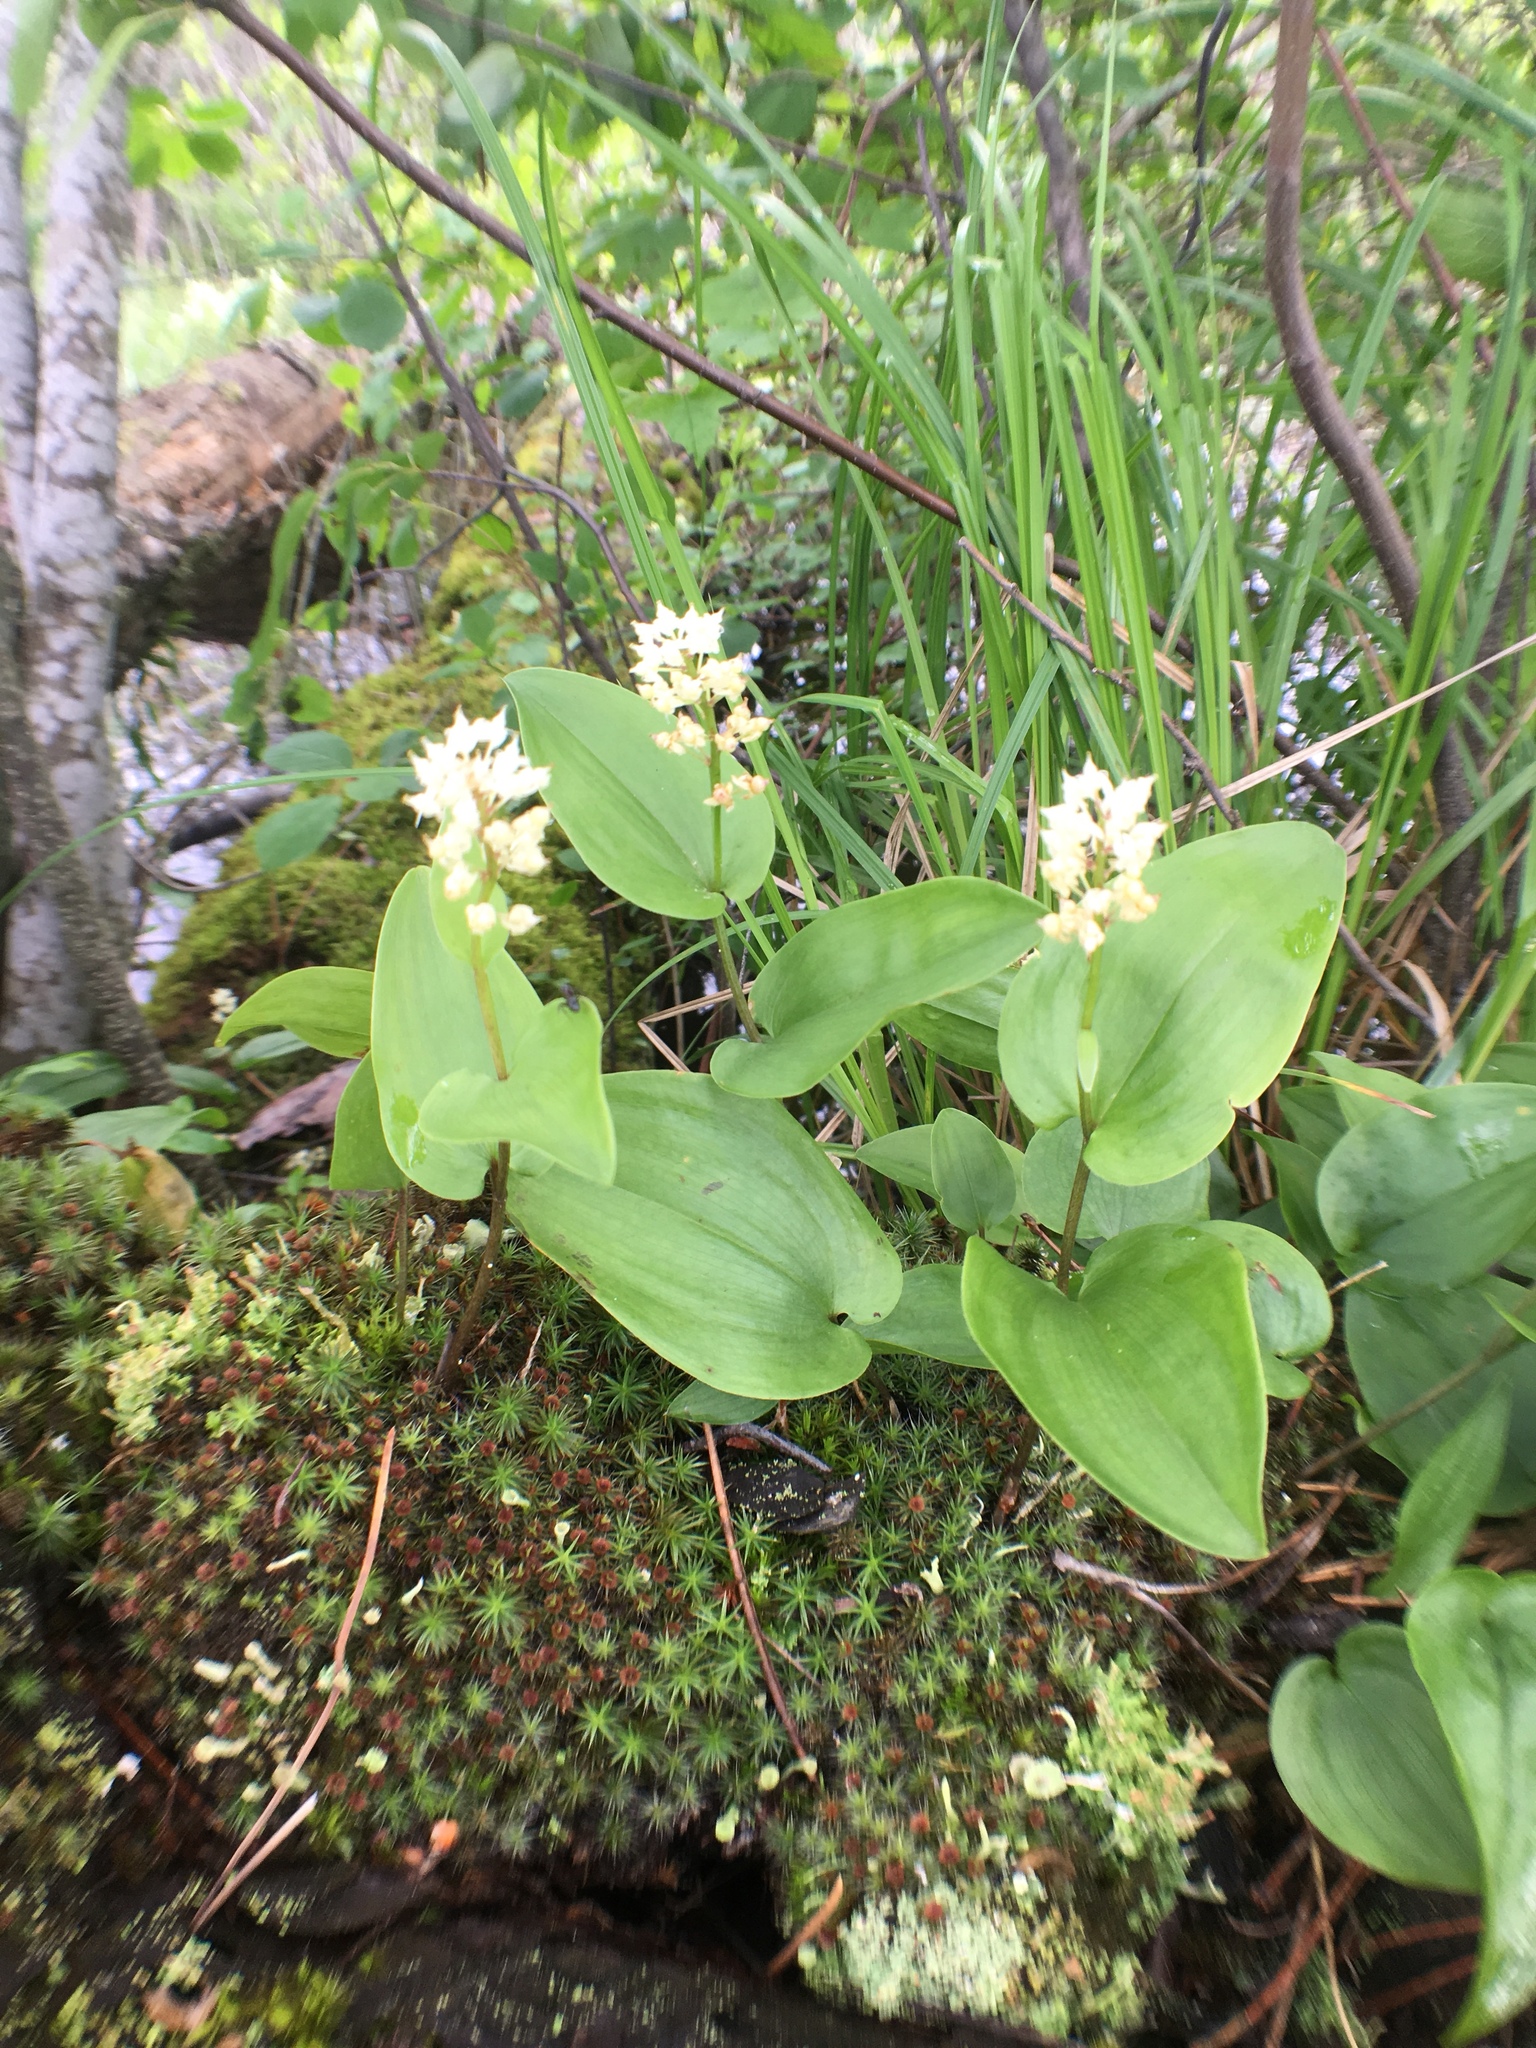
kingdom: Plantae
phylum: Tracheophyta
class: Liliopsida
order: Asparagales
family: Asparagaceae
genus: Maianthemum
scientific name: Maianthemum canadense
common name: False lily-of-the-valley
